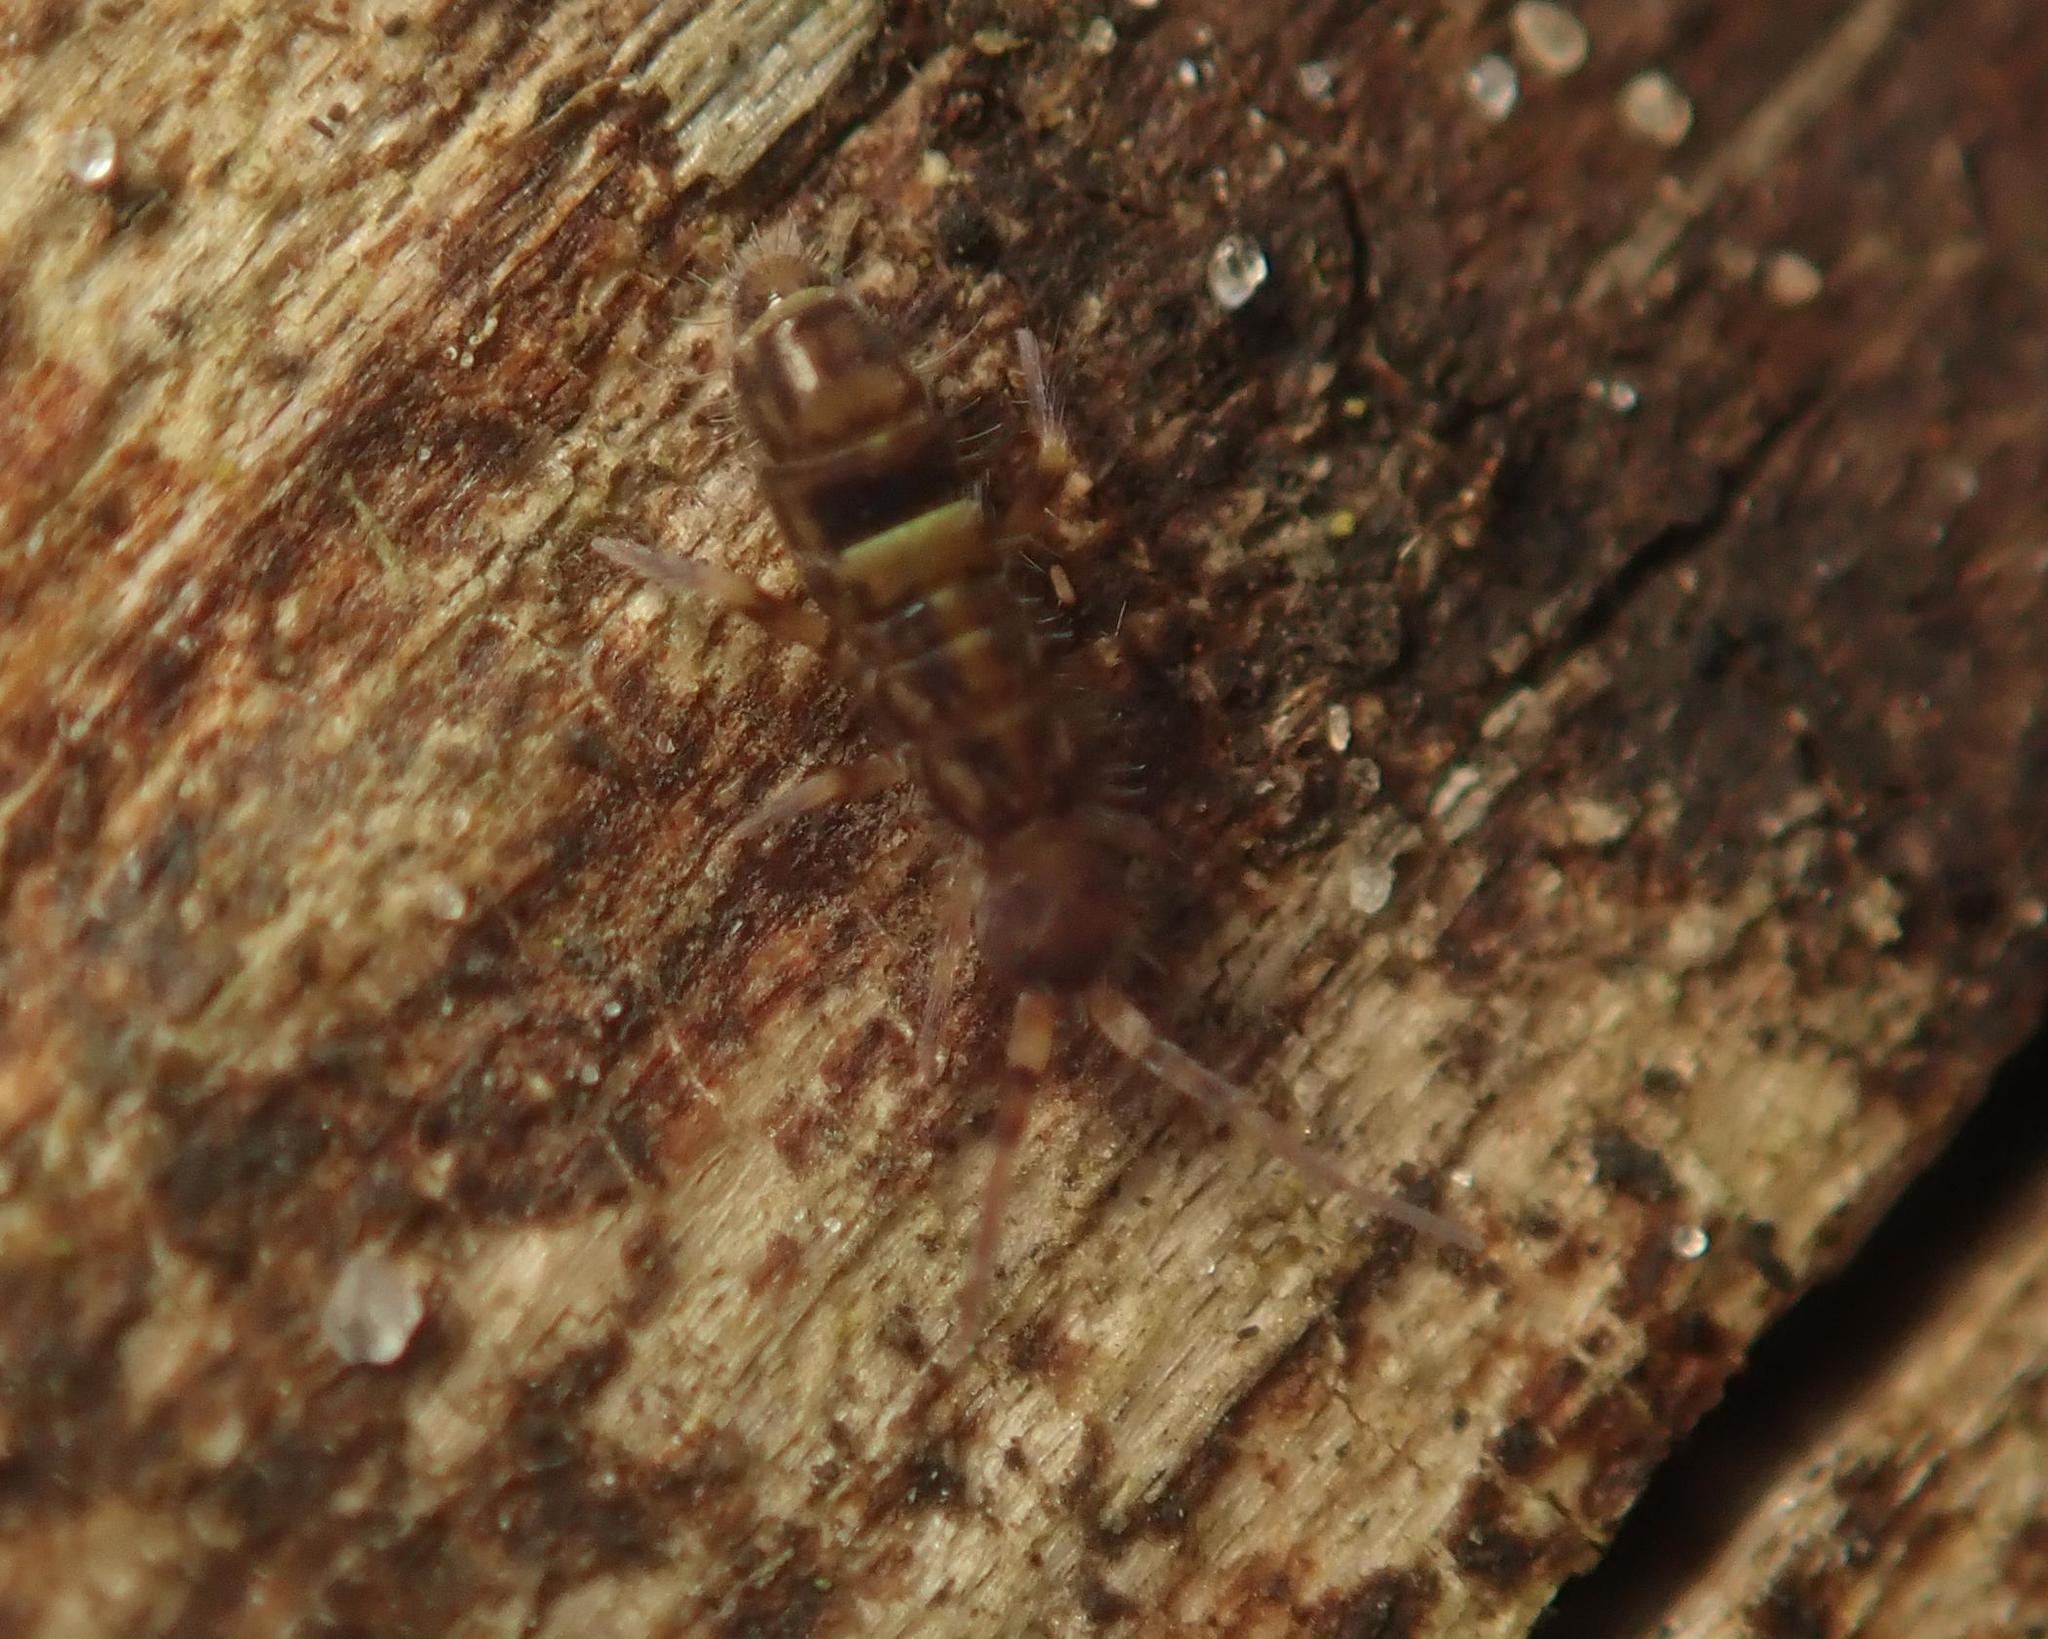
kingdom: Animalia
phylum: Arthropoda
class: Collembola
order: Entomobryomorpha
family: Orchesellidae
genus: Orchesella
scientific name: Orchesella cincta
